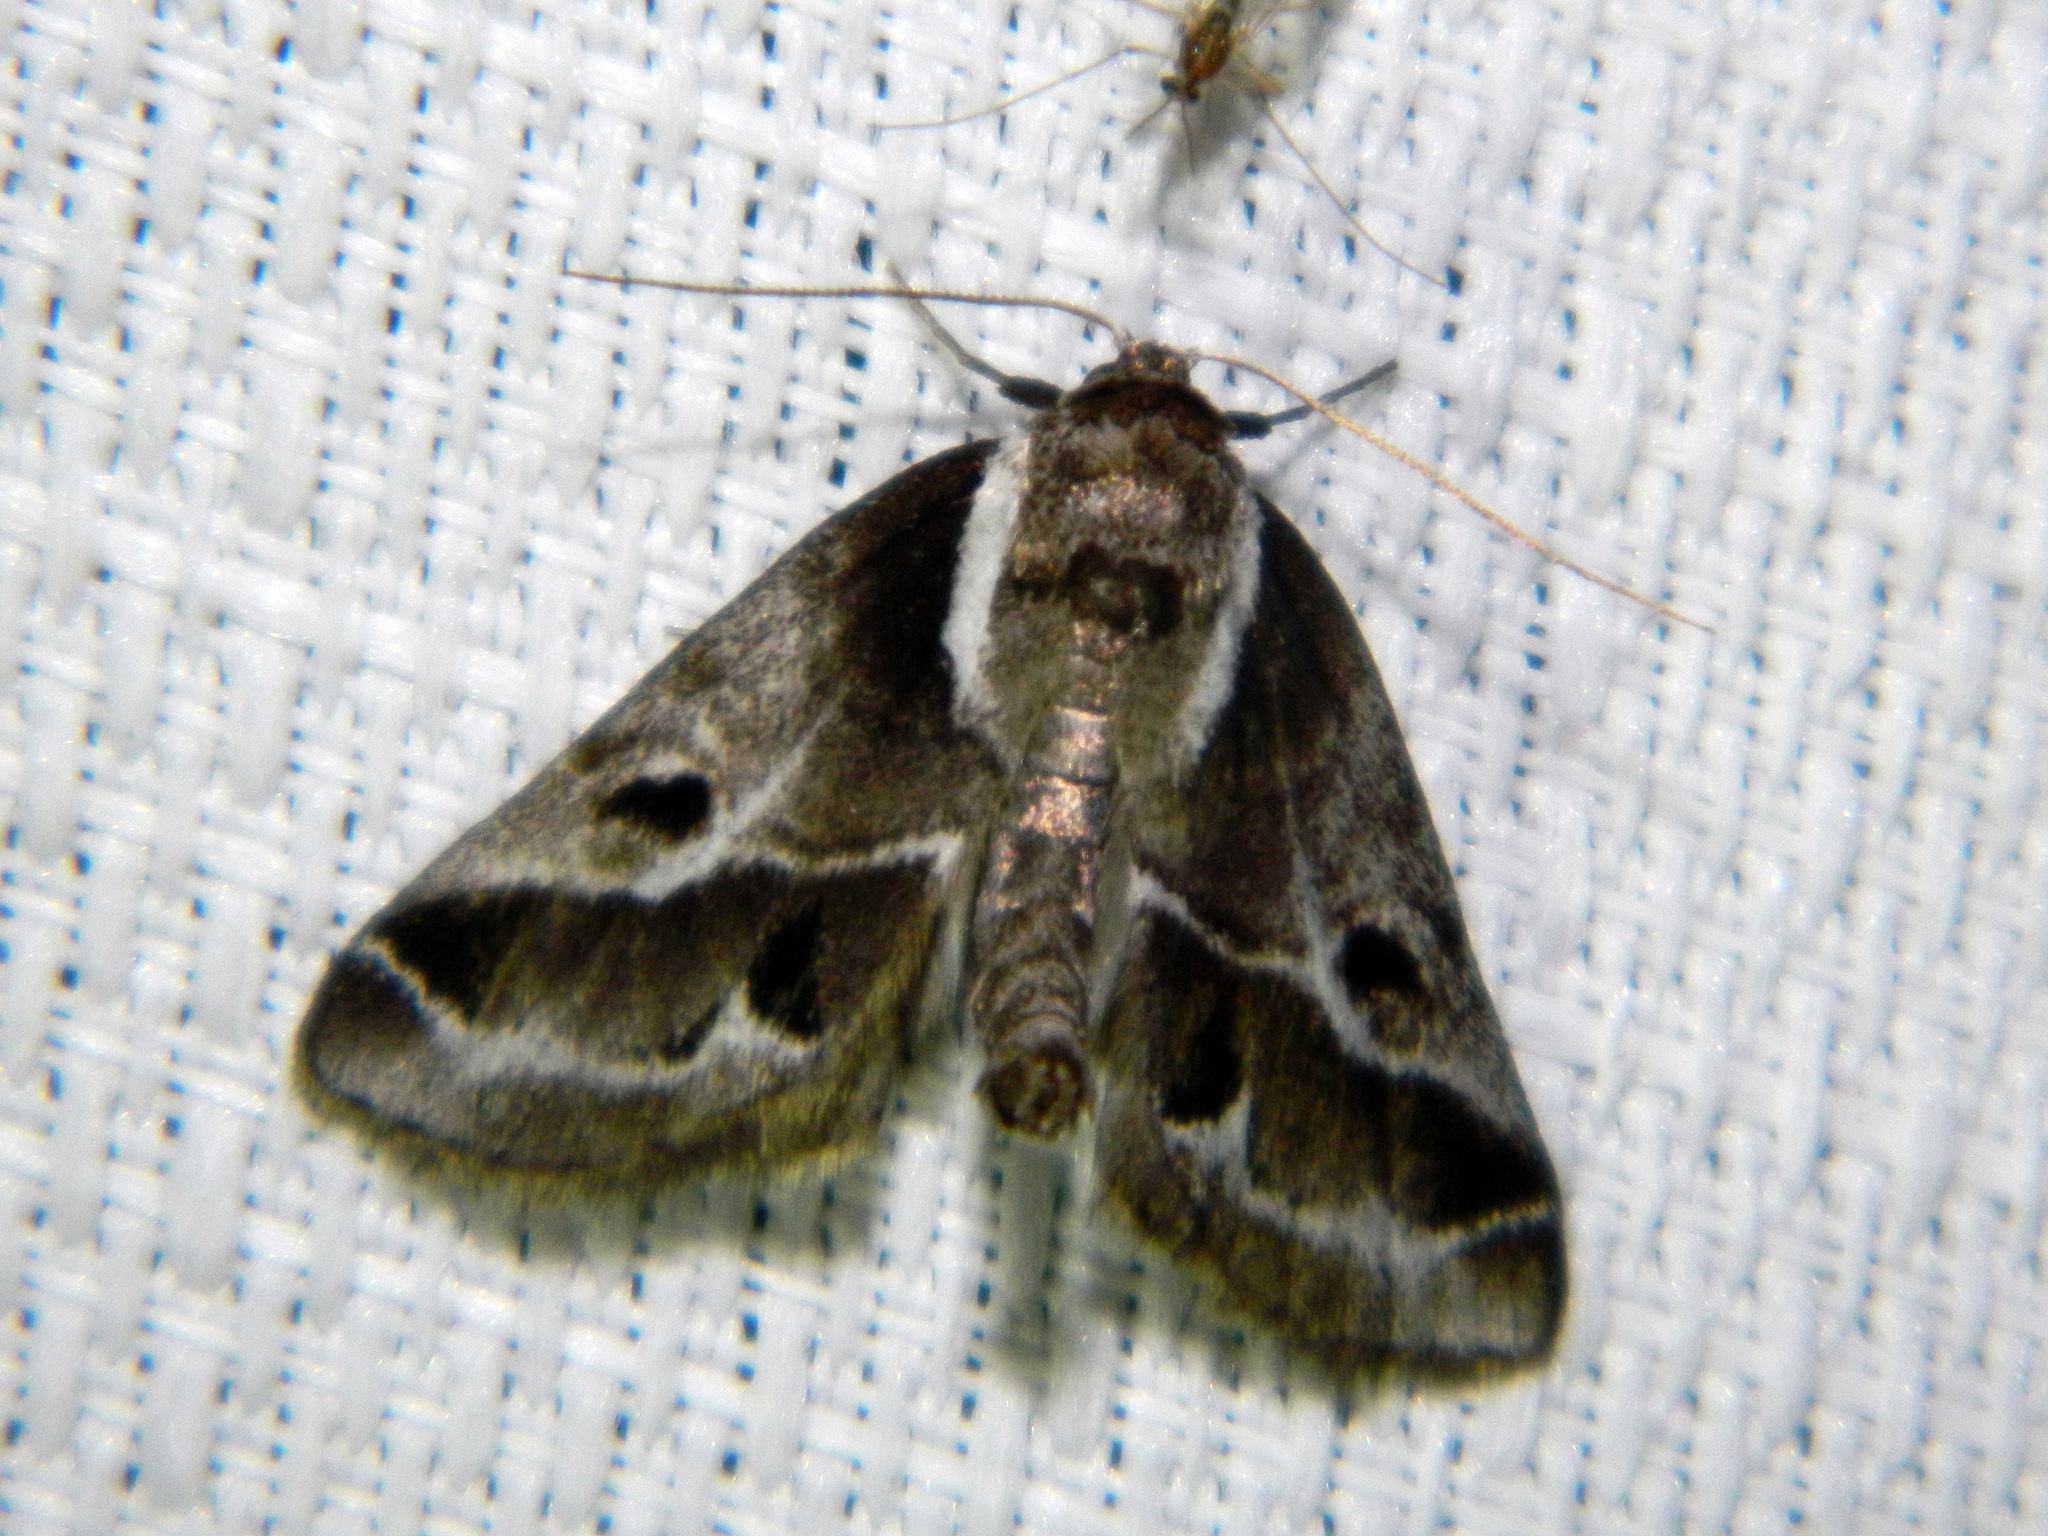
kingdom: Animalia
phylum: Arthropoda
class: Insecta
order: Lepidoptera
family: Nolidae
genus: Baileya
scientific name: Baileya doubledayi
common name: Doubleday's baileya moth
